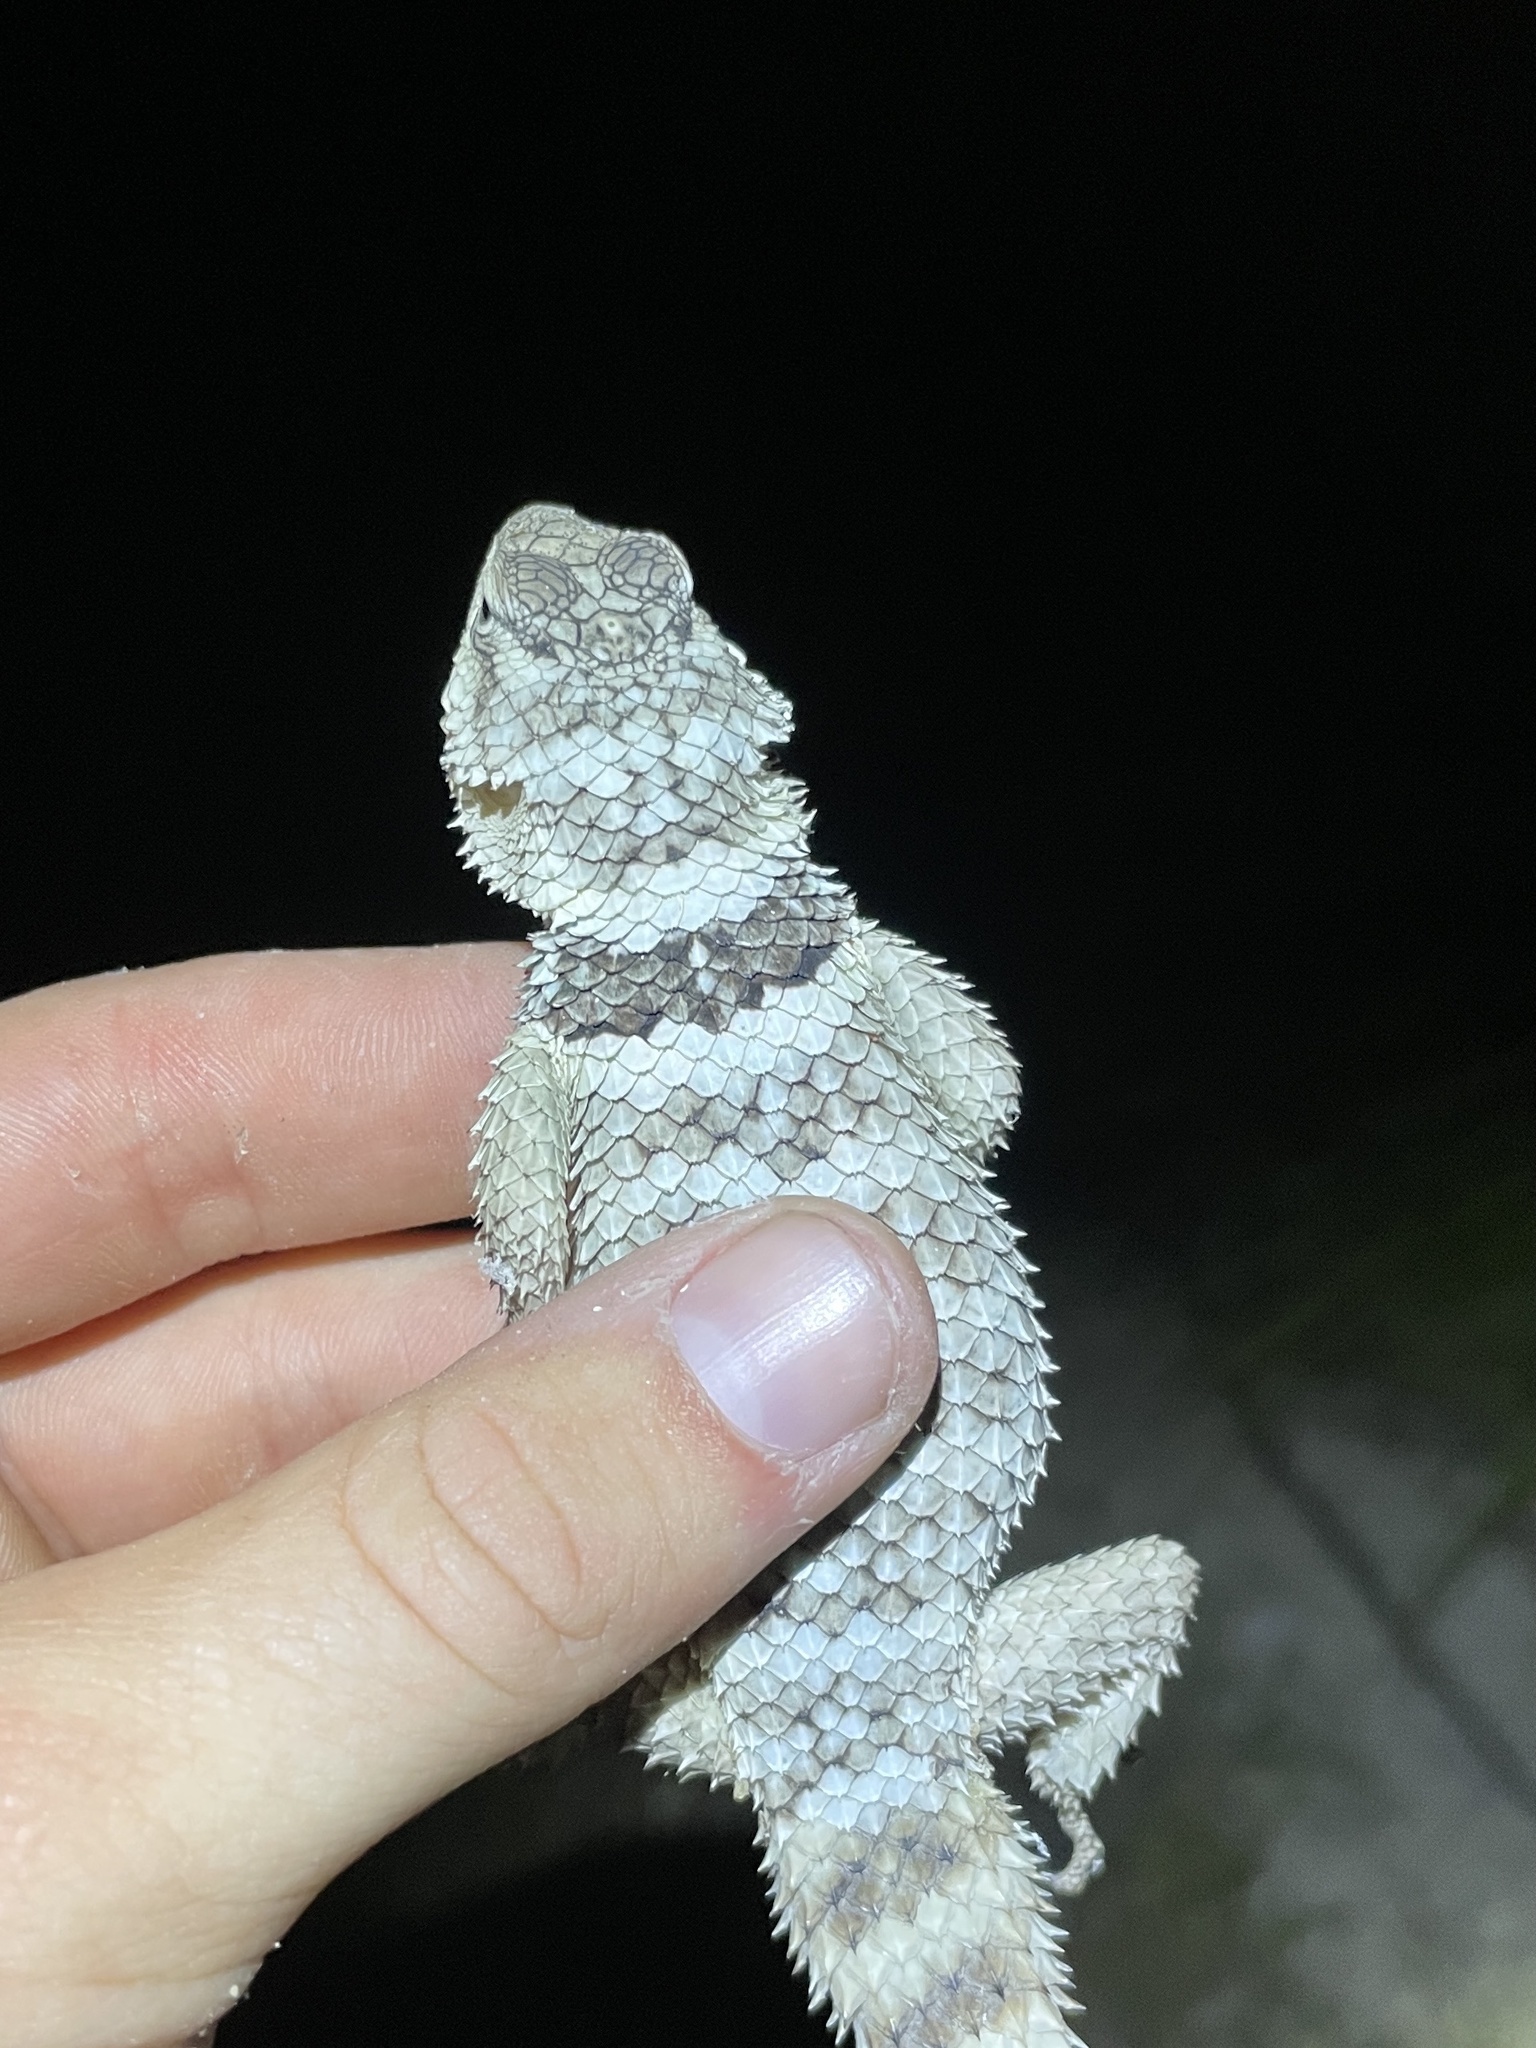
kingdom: Animalia
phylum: Chordata
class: Squamata
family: Phrynosomatidae
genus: Sceloporus
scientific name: Sceloporus poinsettii
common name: Crevice spiny lizard
